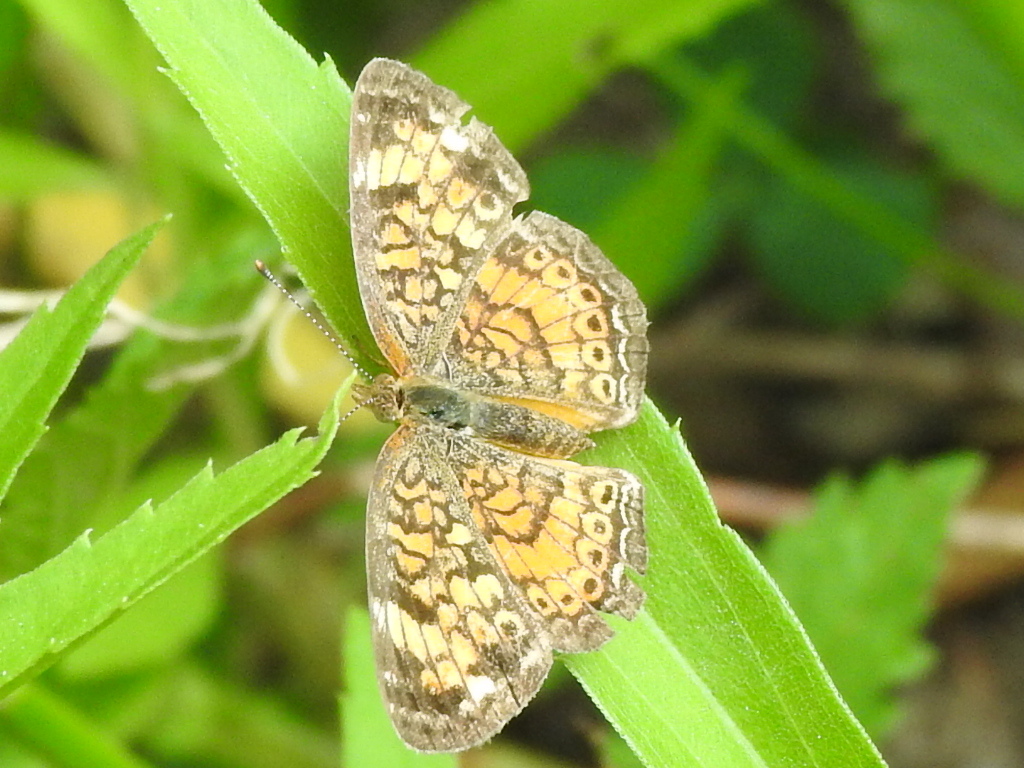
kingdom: Animalia
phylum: Arthropoda
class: Insecta
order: Lepidoptera
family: Nymphalidae
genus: Phyciodes
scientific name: Phyciodes phaon
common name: Phaon crescent
